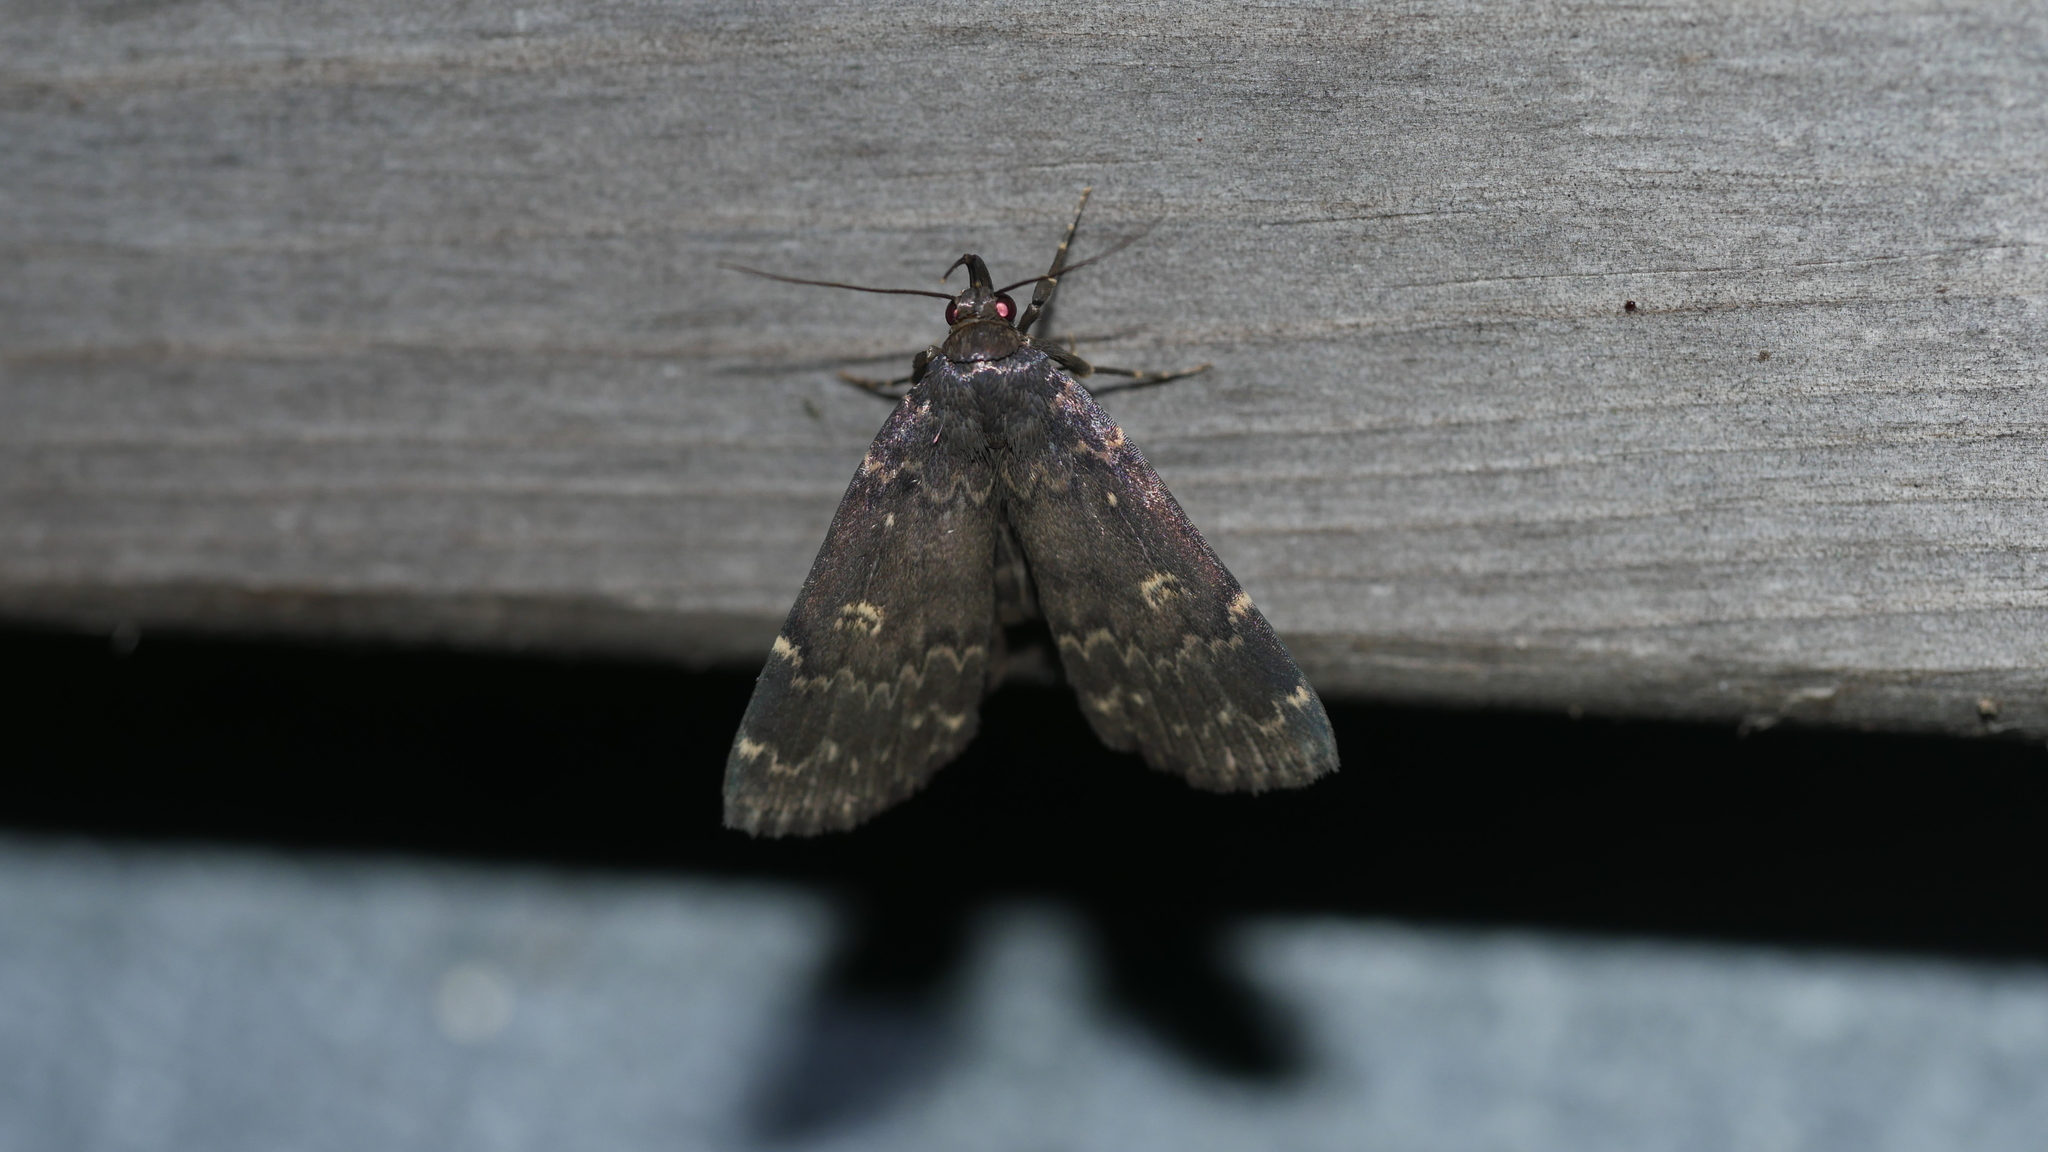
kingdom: Animalia
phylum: Arthropoda
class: Insecta
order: Lepidoptera
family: Erebidae
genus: Idia
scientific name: Idia lubricalis
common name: Twin-striped tabby
